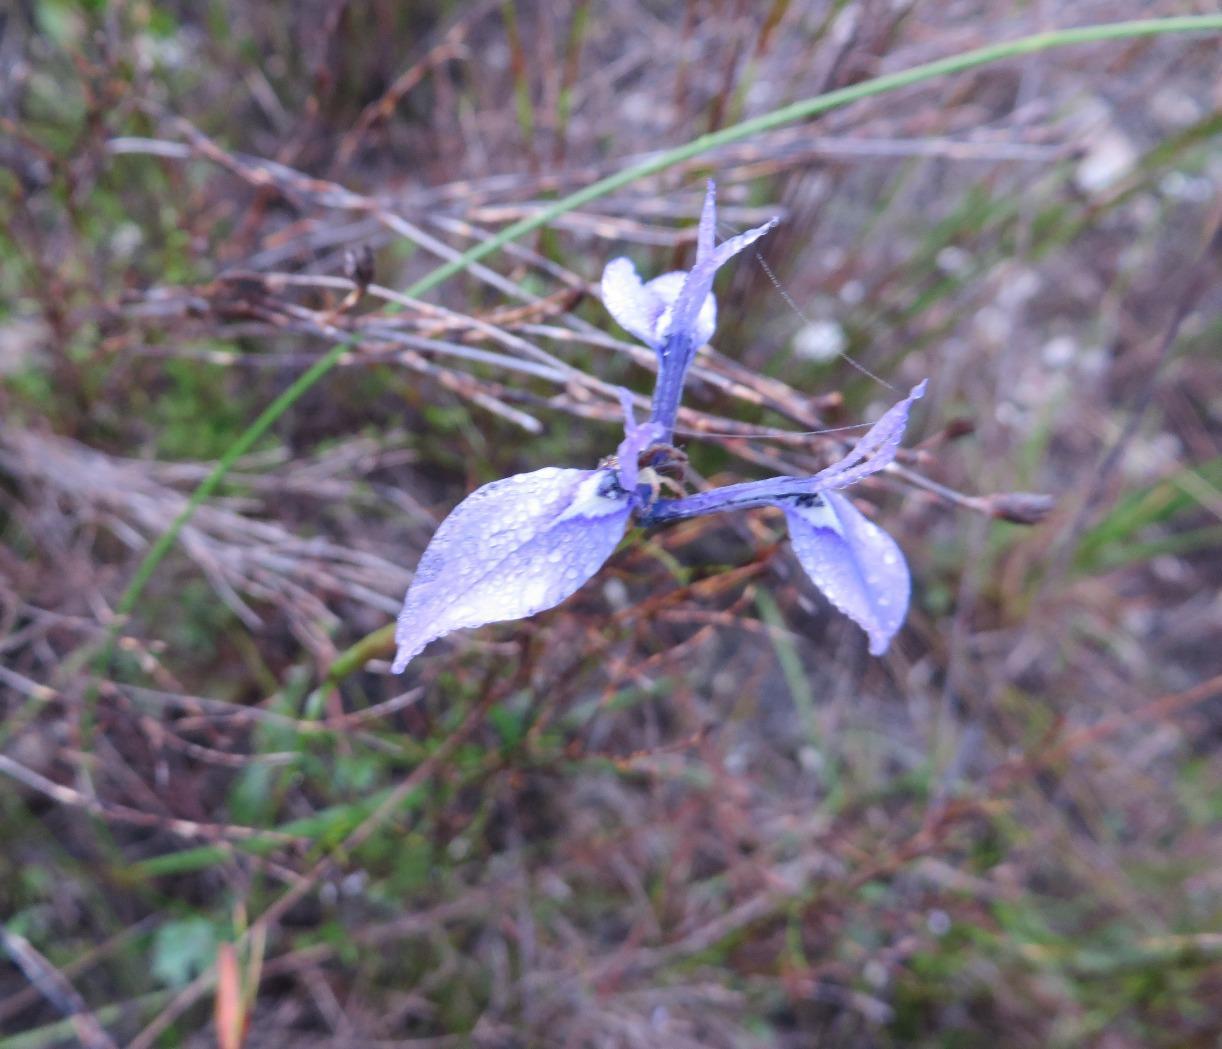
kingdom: Plantae
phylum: Tracheophyta
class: Liliopsida
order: Asparagales
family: Iridaceae
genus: Moraea
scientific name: Moraea tripetala
